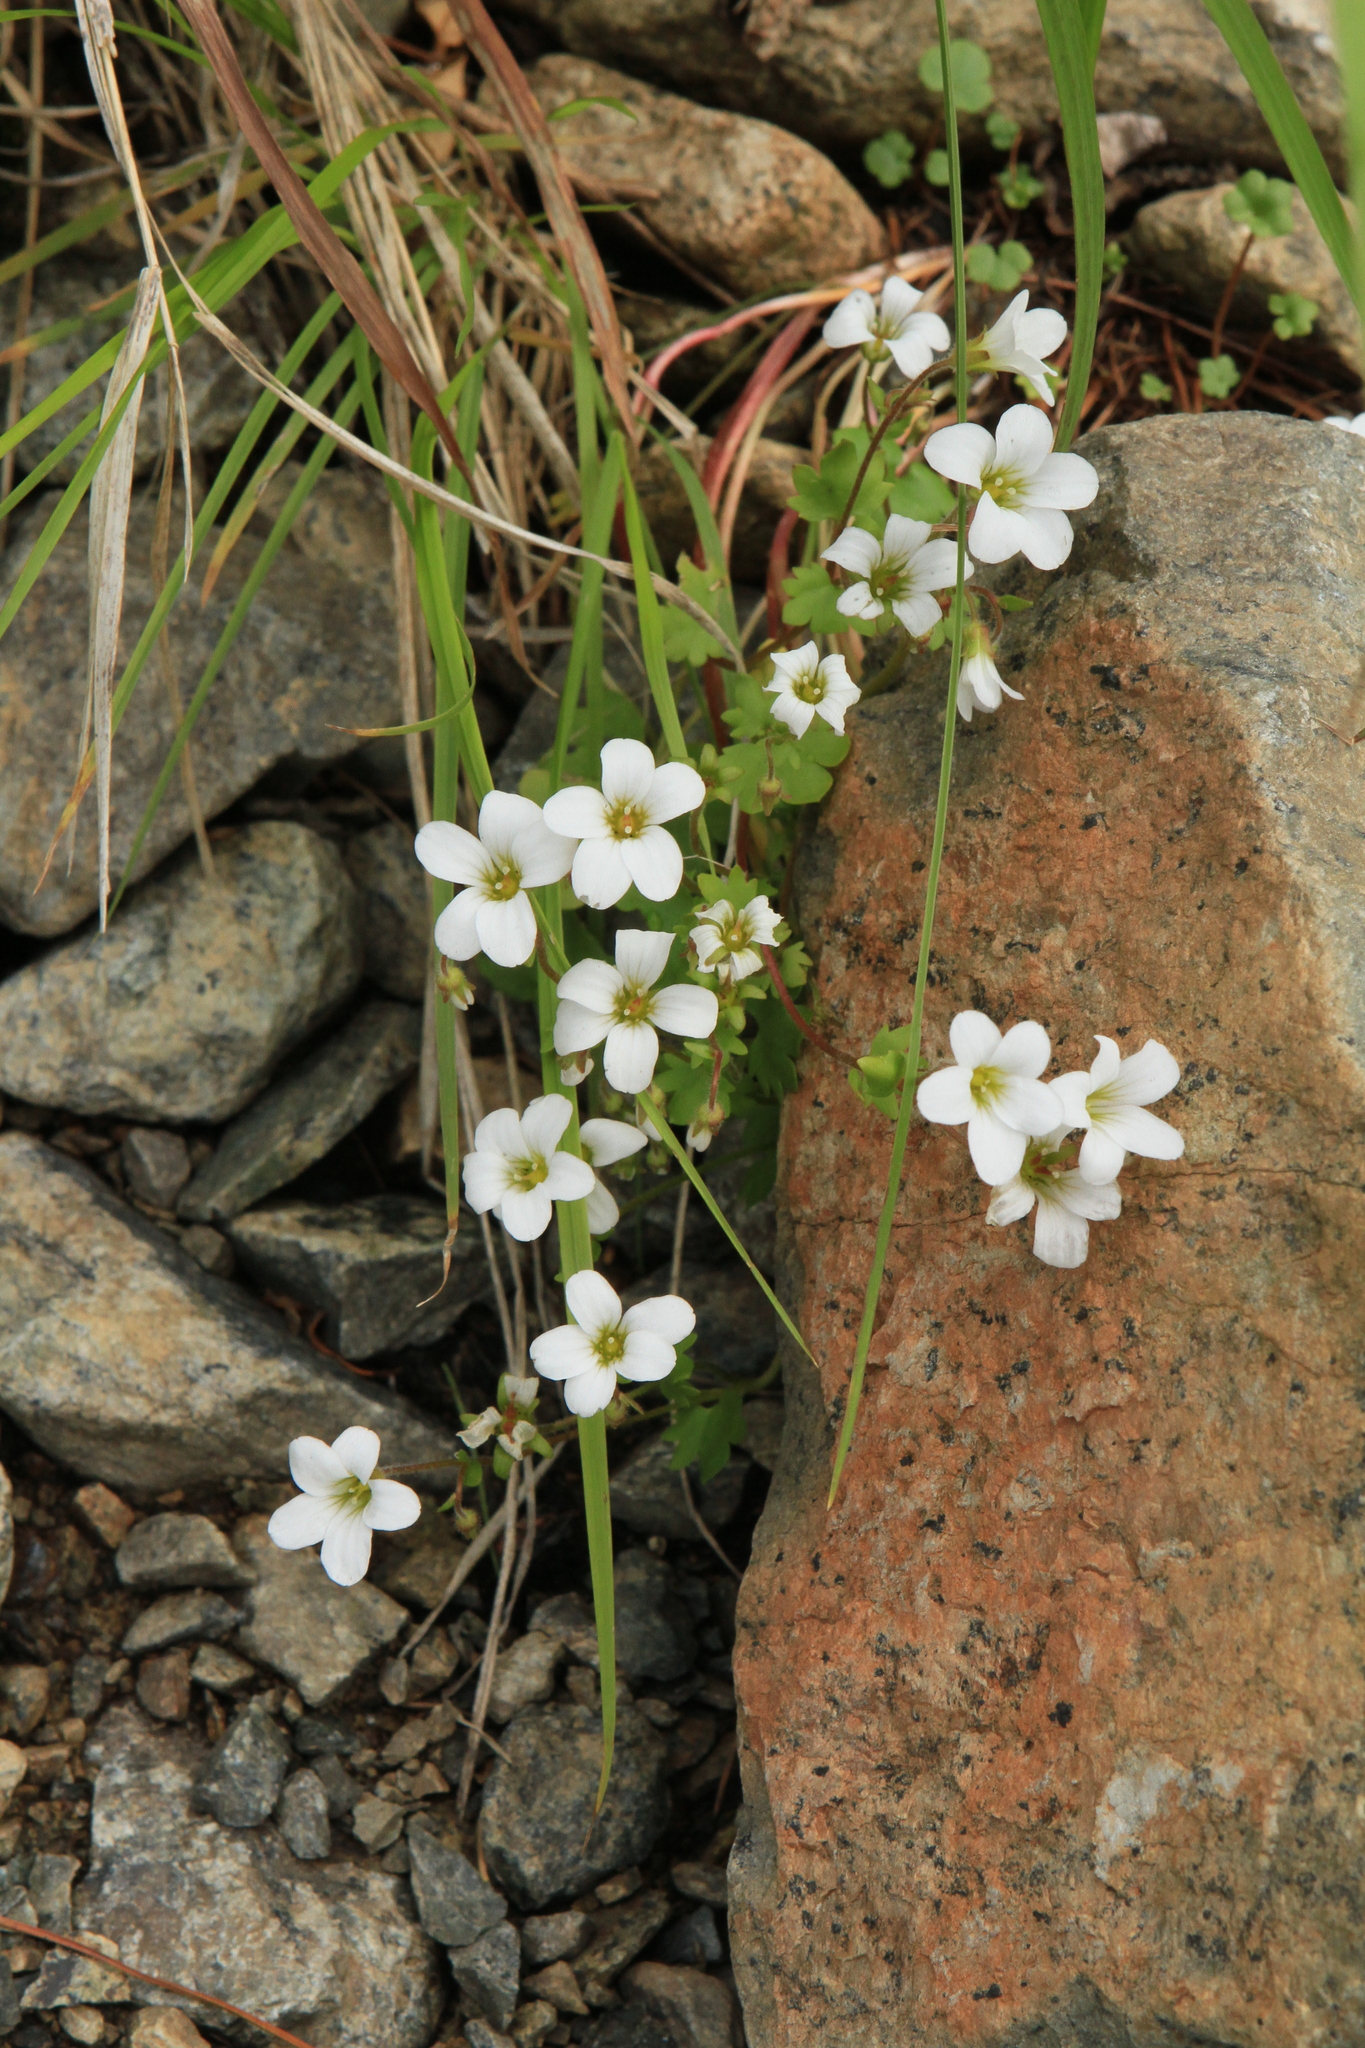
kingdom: Plantae
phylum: Tracheophyta
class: Magnoliopsida
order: Saxifragales
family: Saxifragaceae
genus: Saxifraga
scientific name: Saxifraga sibirica
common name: Siberian saxifrage
